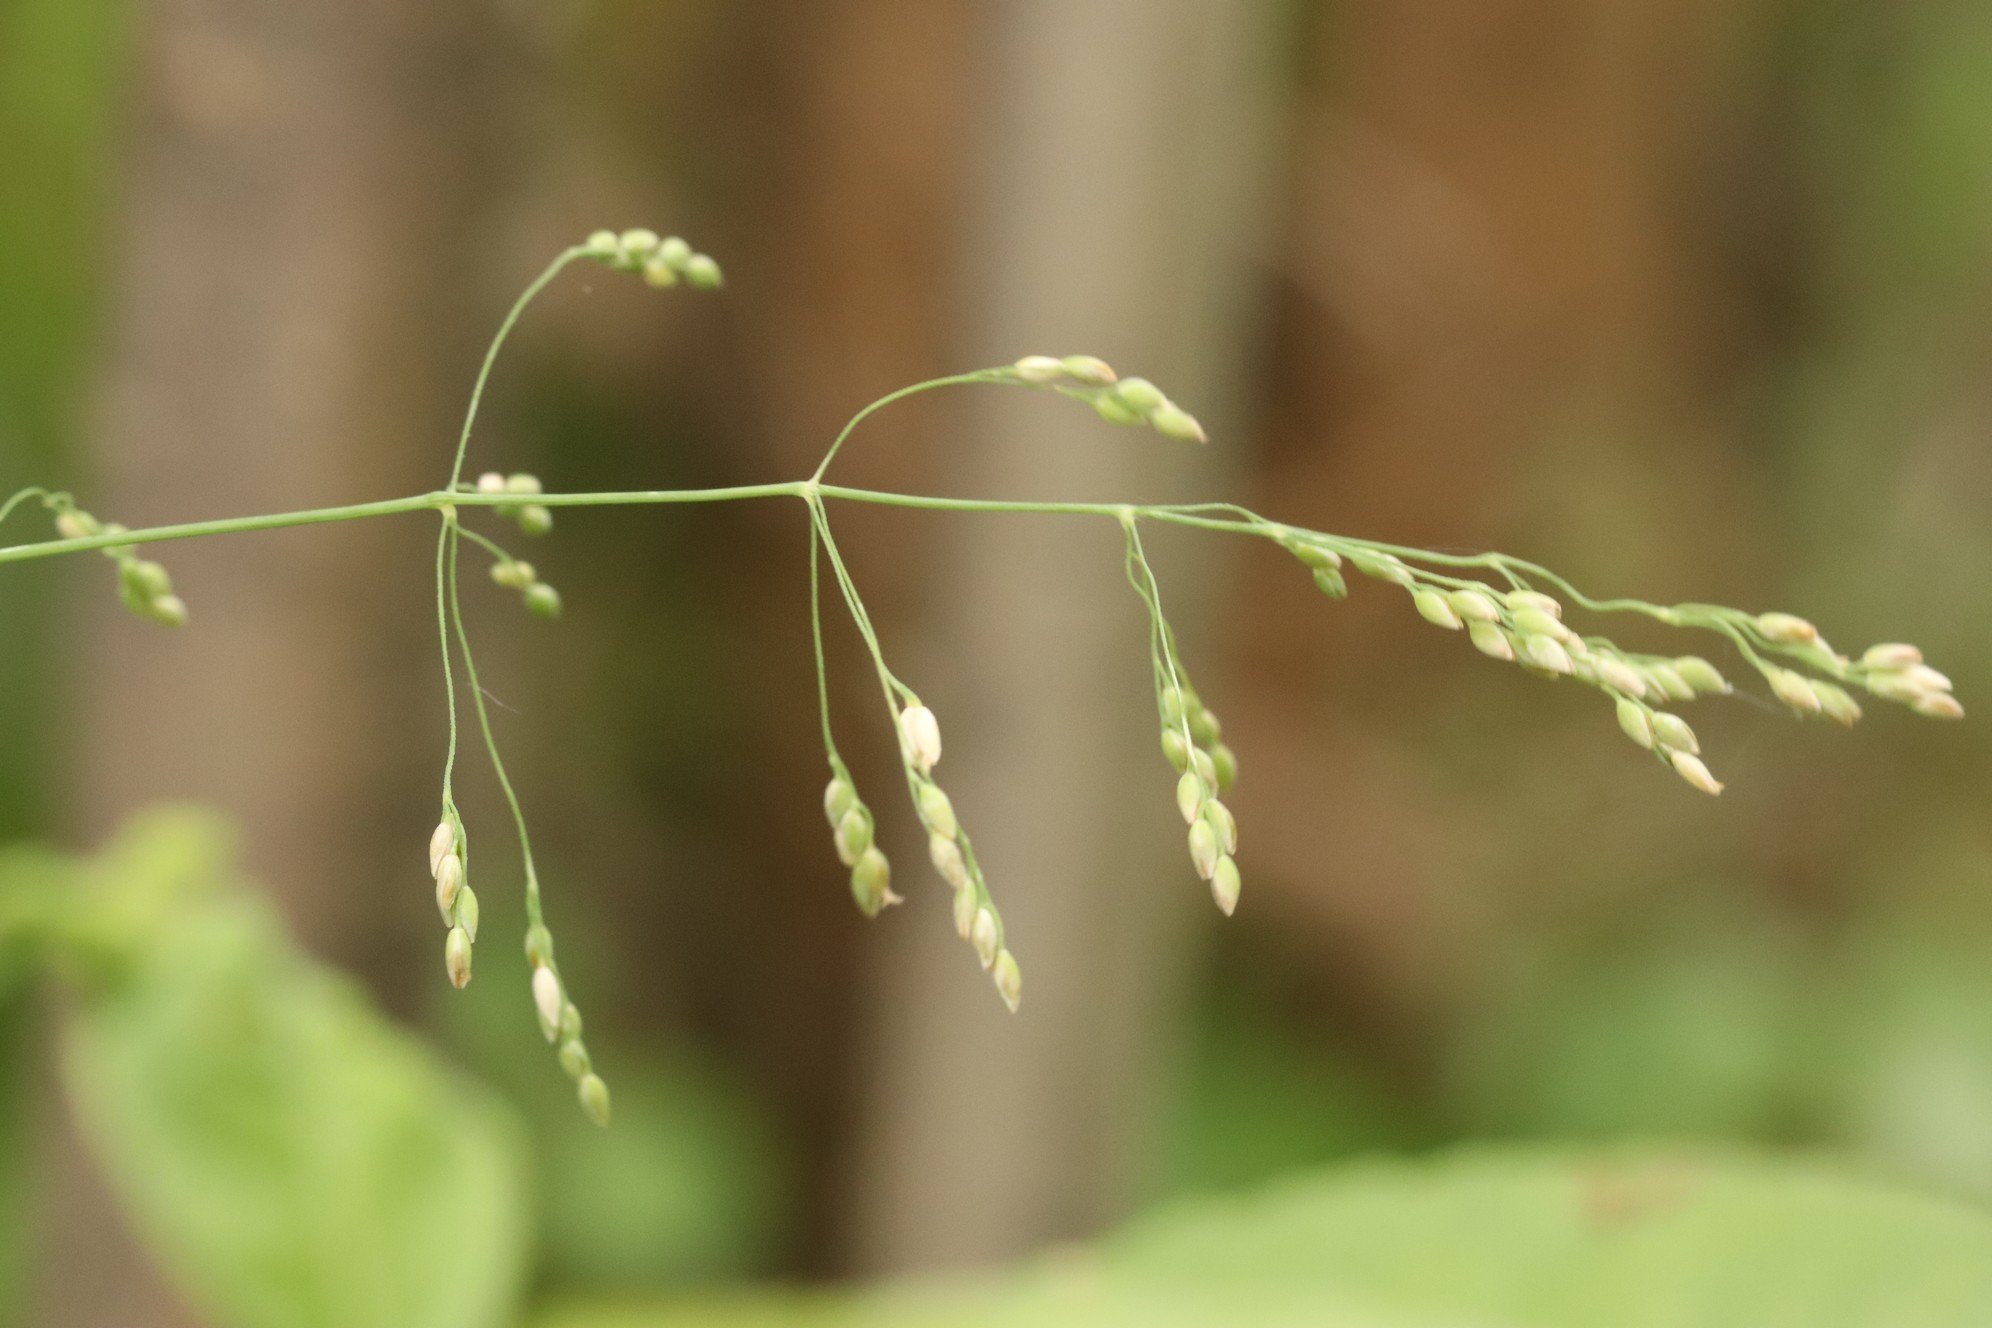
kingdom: Plantae
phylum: Tracheophyta
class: Liliopsida
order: Poales
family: Poaceae
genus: Milium
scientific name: Milium effusum
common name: Wood millet
